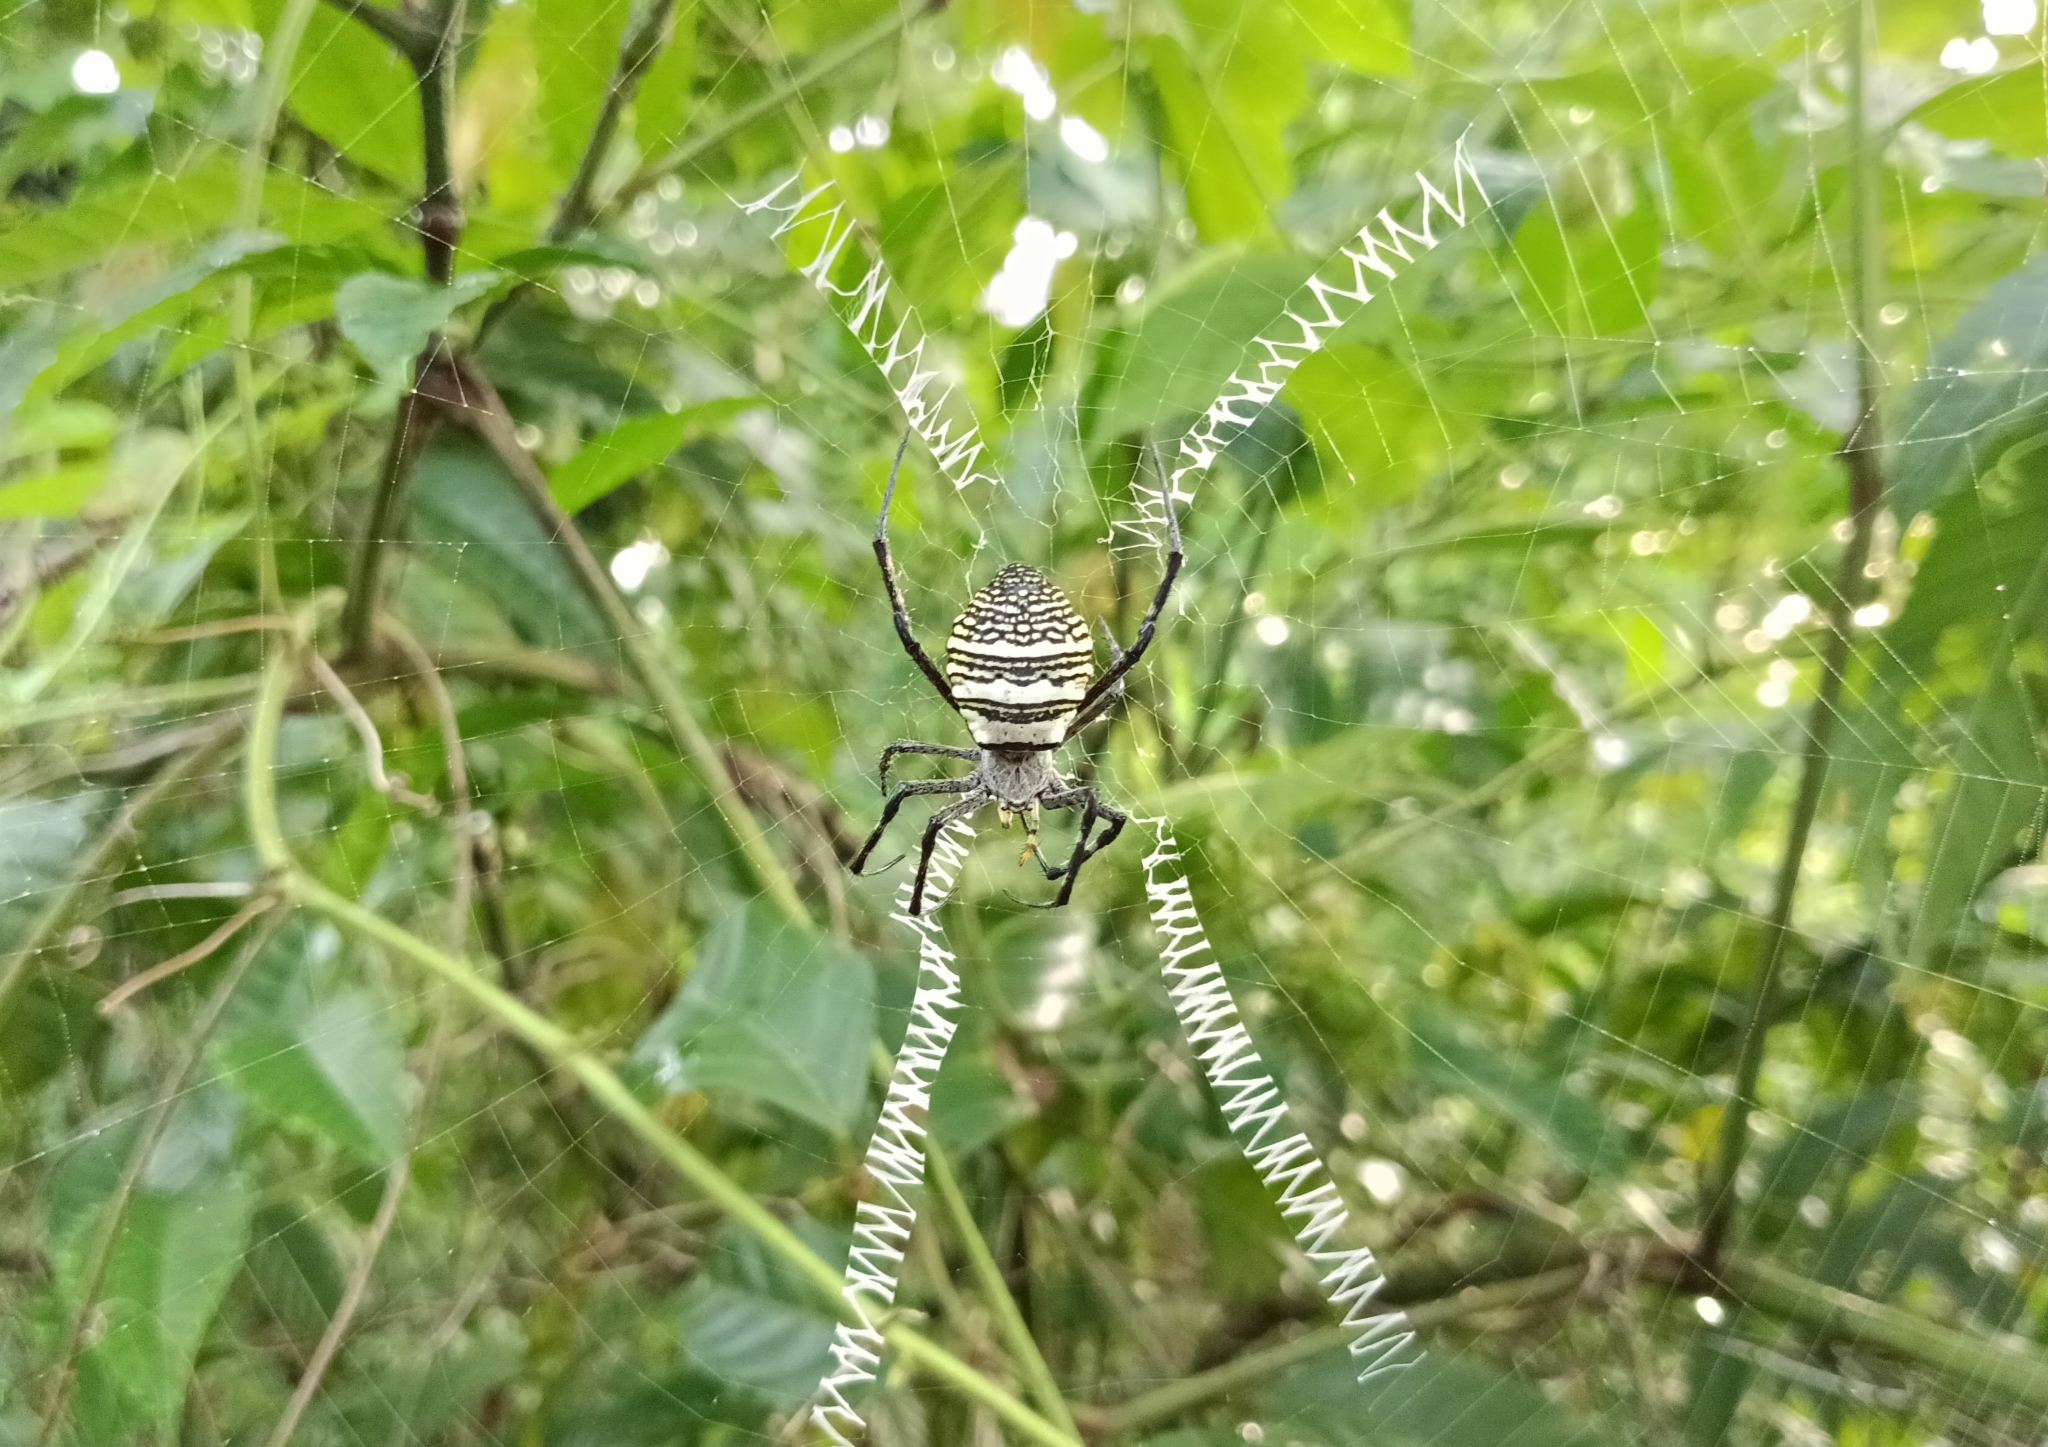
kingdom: Animalia
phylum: Arthropoda
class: Arachnida
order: Araneae
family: Araneidae
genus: Argiope
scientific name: Argiope aemula
